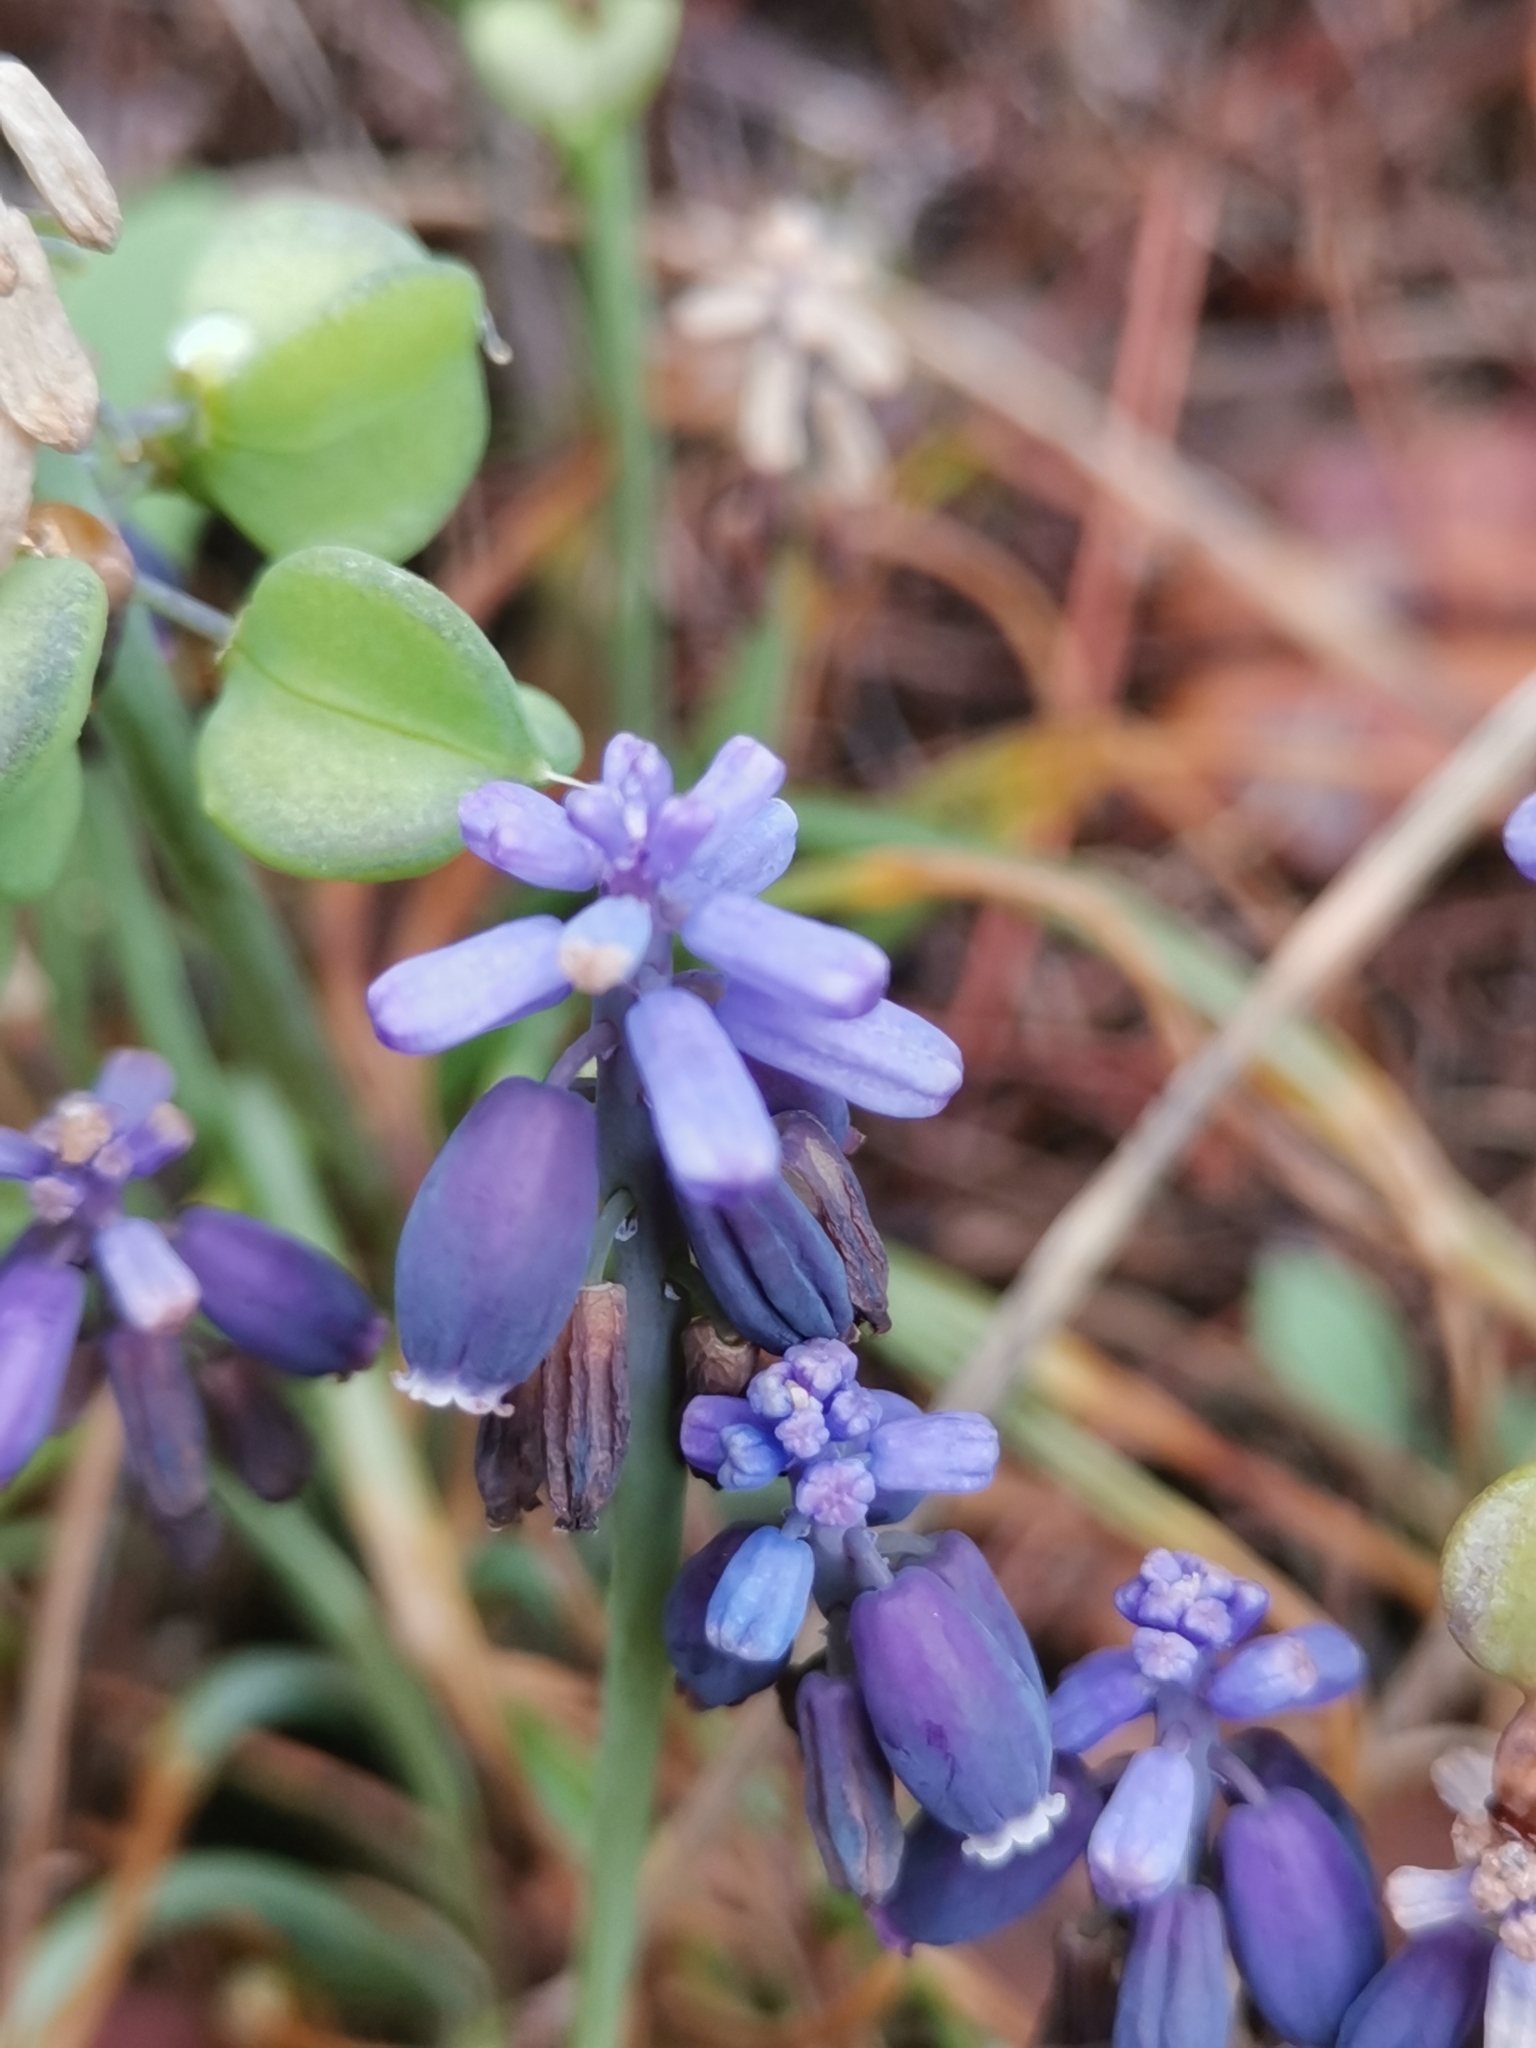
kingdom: Plantae
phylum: Tracheophyta
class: Liliopsida
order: Asparagales
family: Asparagaceae
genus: Muscari
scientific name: Muscari neglectum
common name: Grape-hyacinth
